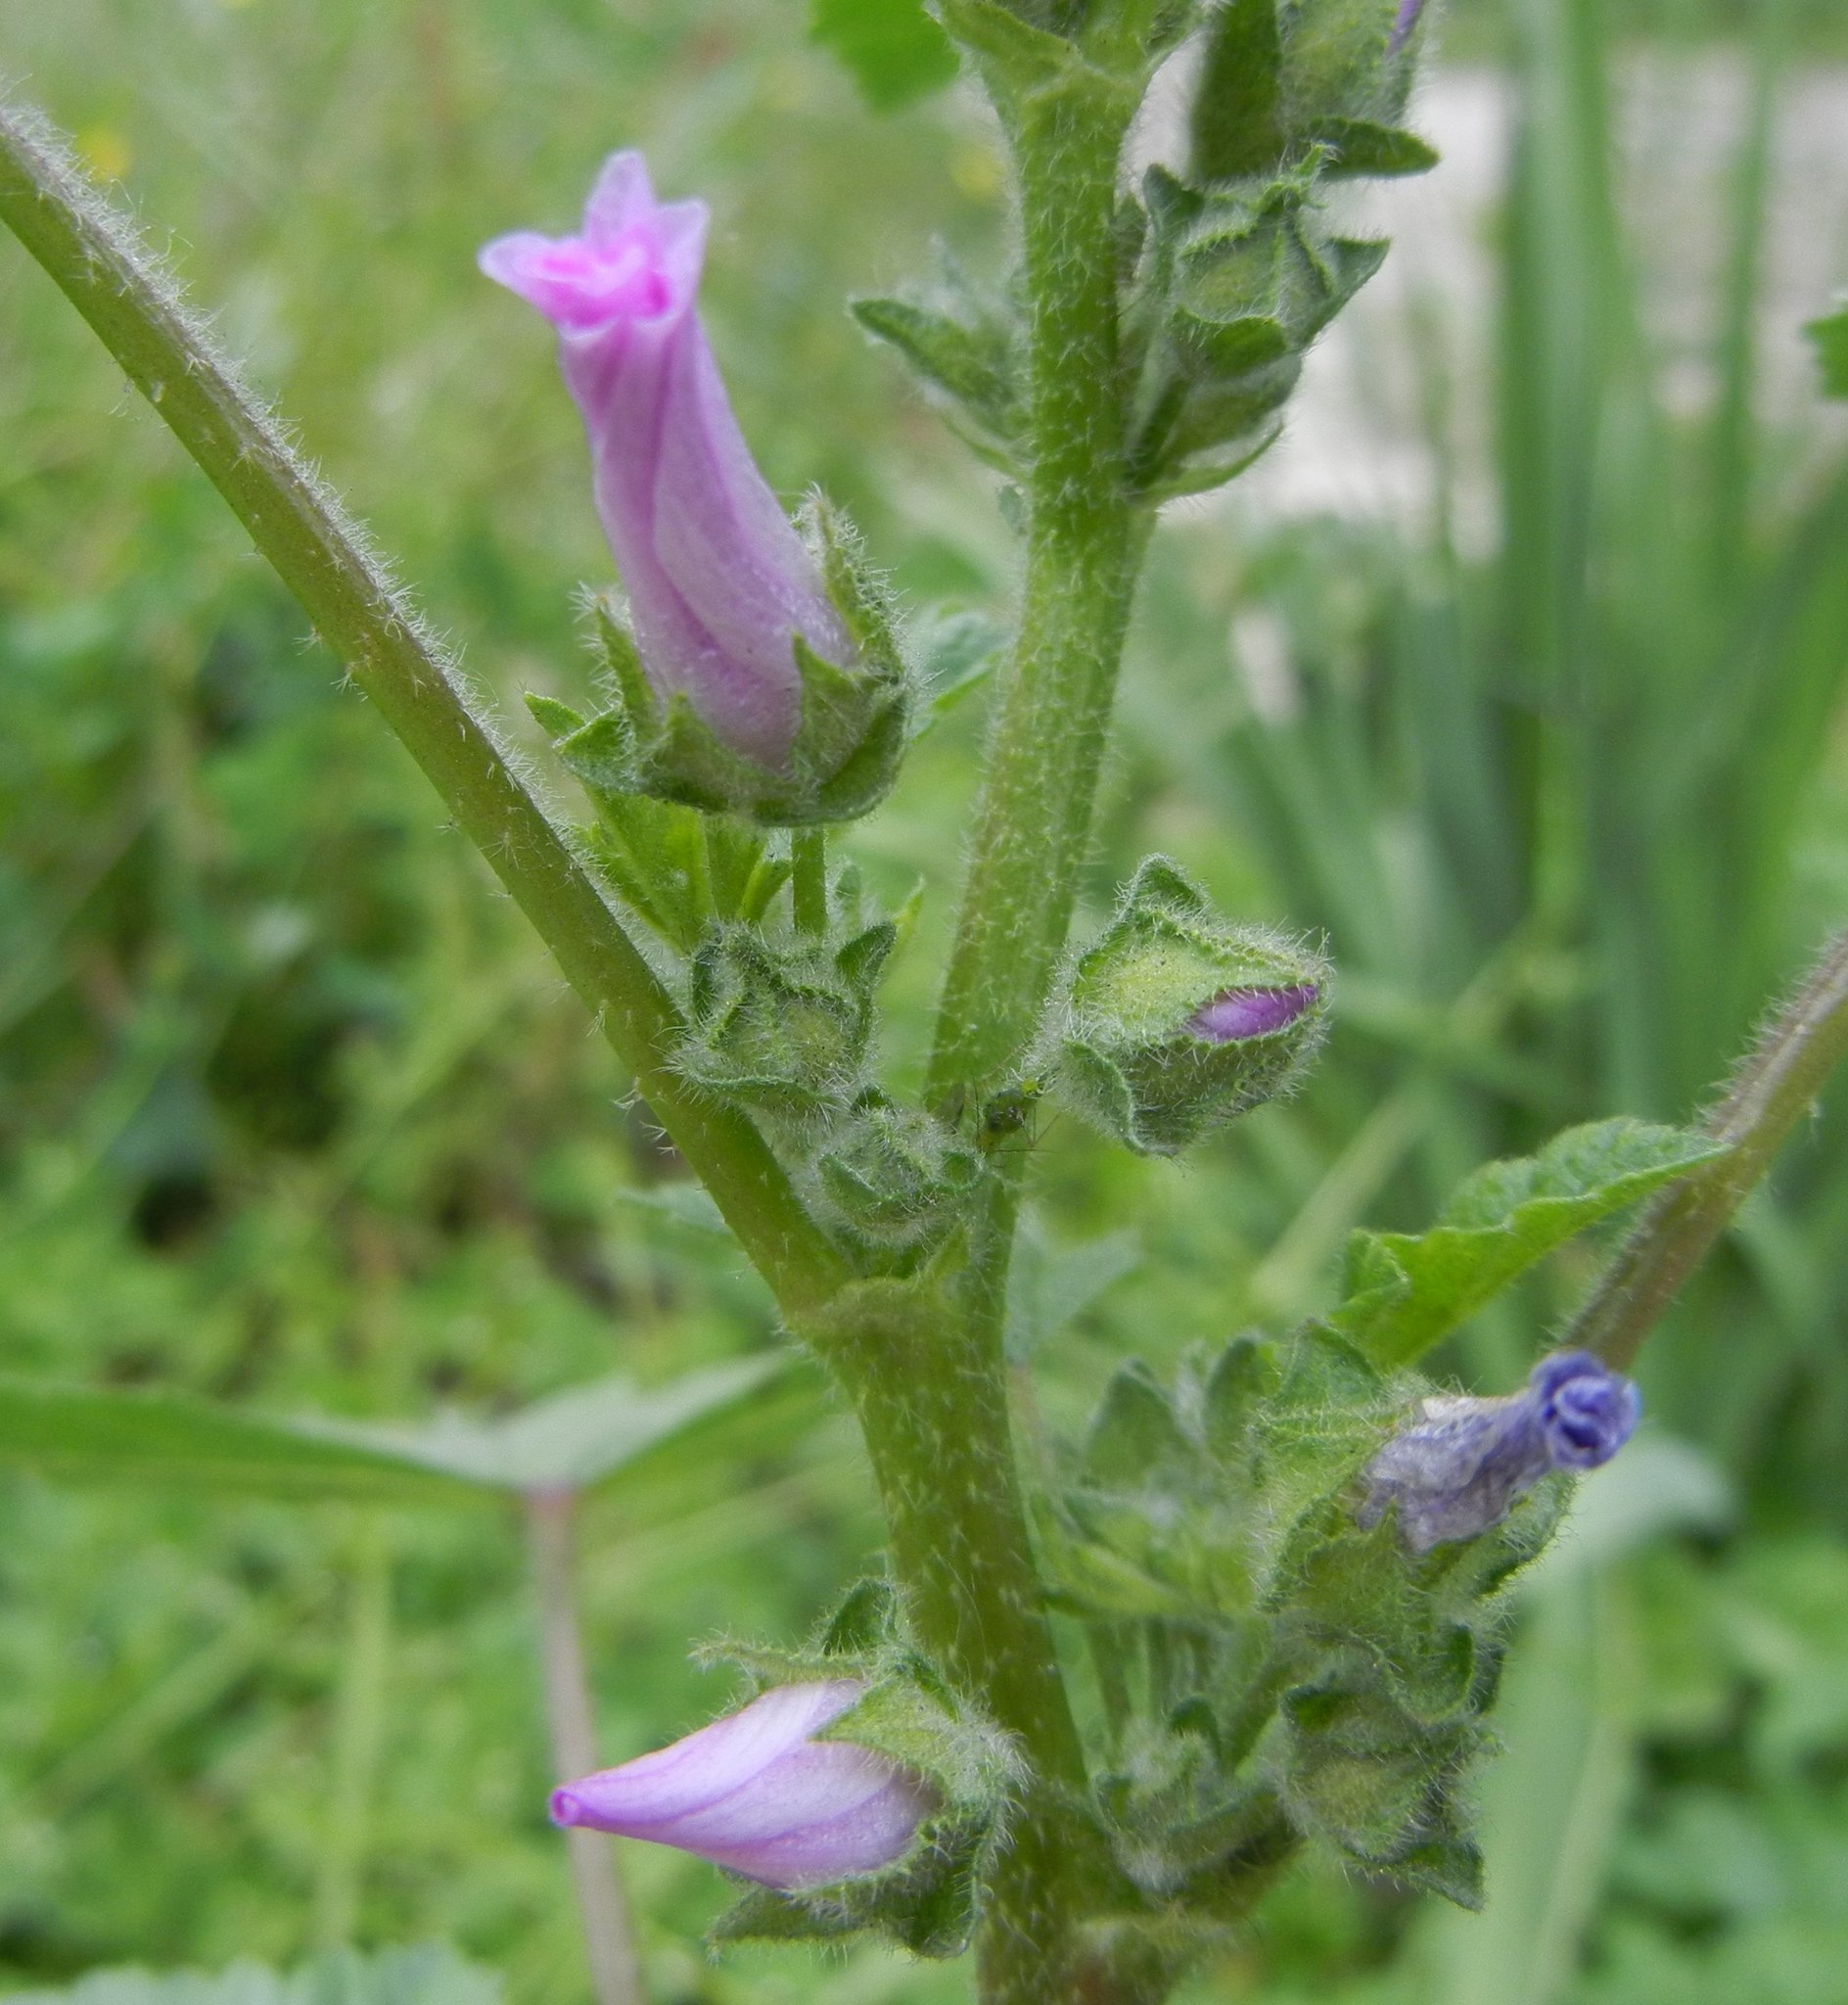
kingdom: Plantae
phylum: Tracheophyta
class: Magnoliopsida
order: Malvales
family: Malvaceae
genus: Malva
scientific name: Malva sylvestris
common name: Common mallow
